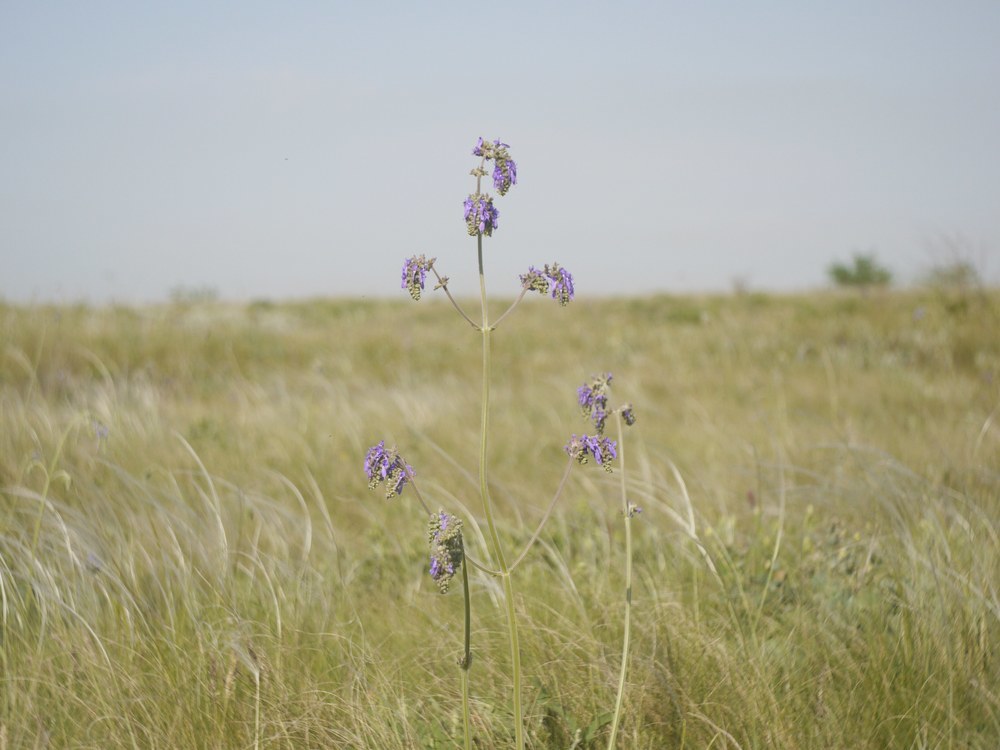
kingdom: Plantae
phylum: Tracheophyta
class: Magnoliopsida
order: Lamiales
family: Lamiaceae
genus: Salvia
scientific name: Salvia nutans
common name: Nodding sage
